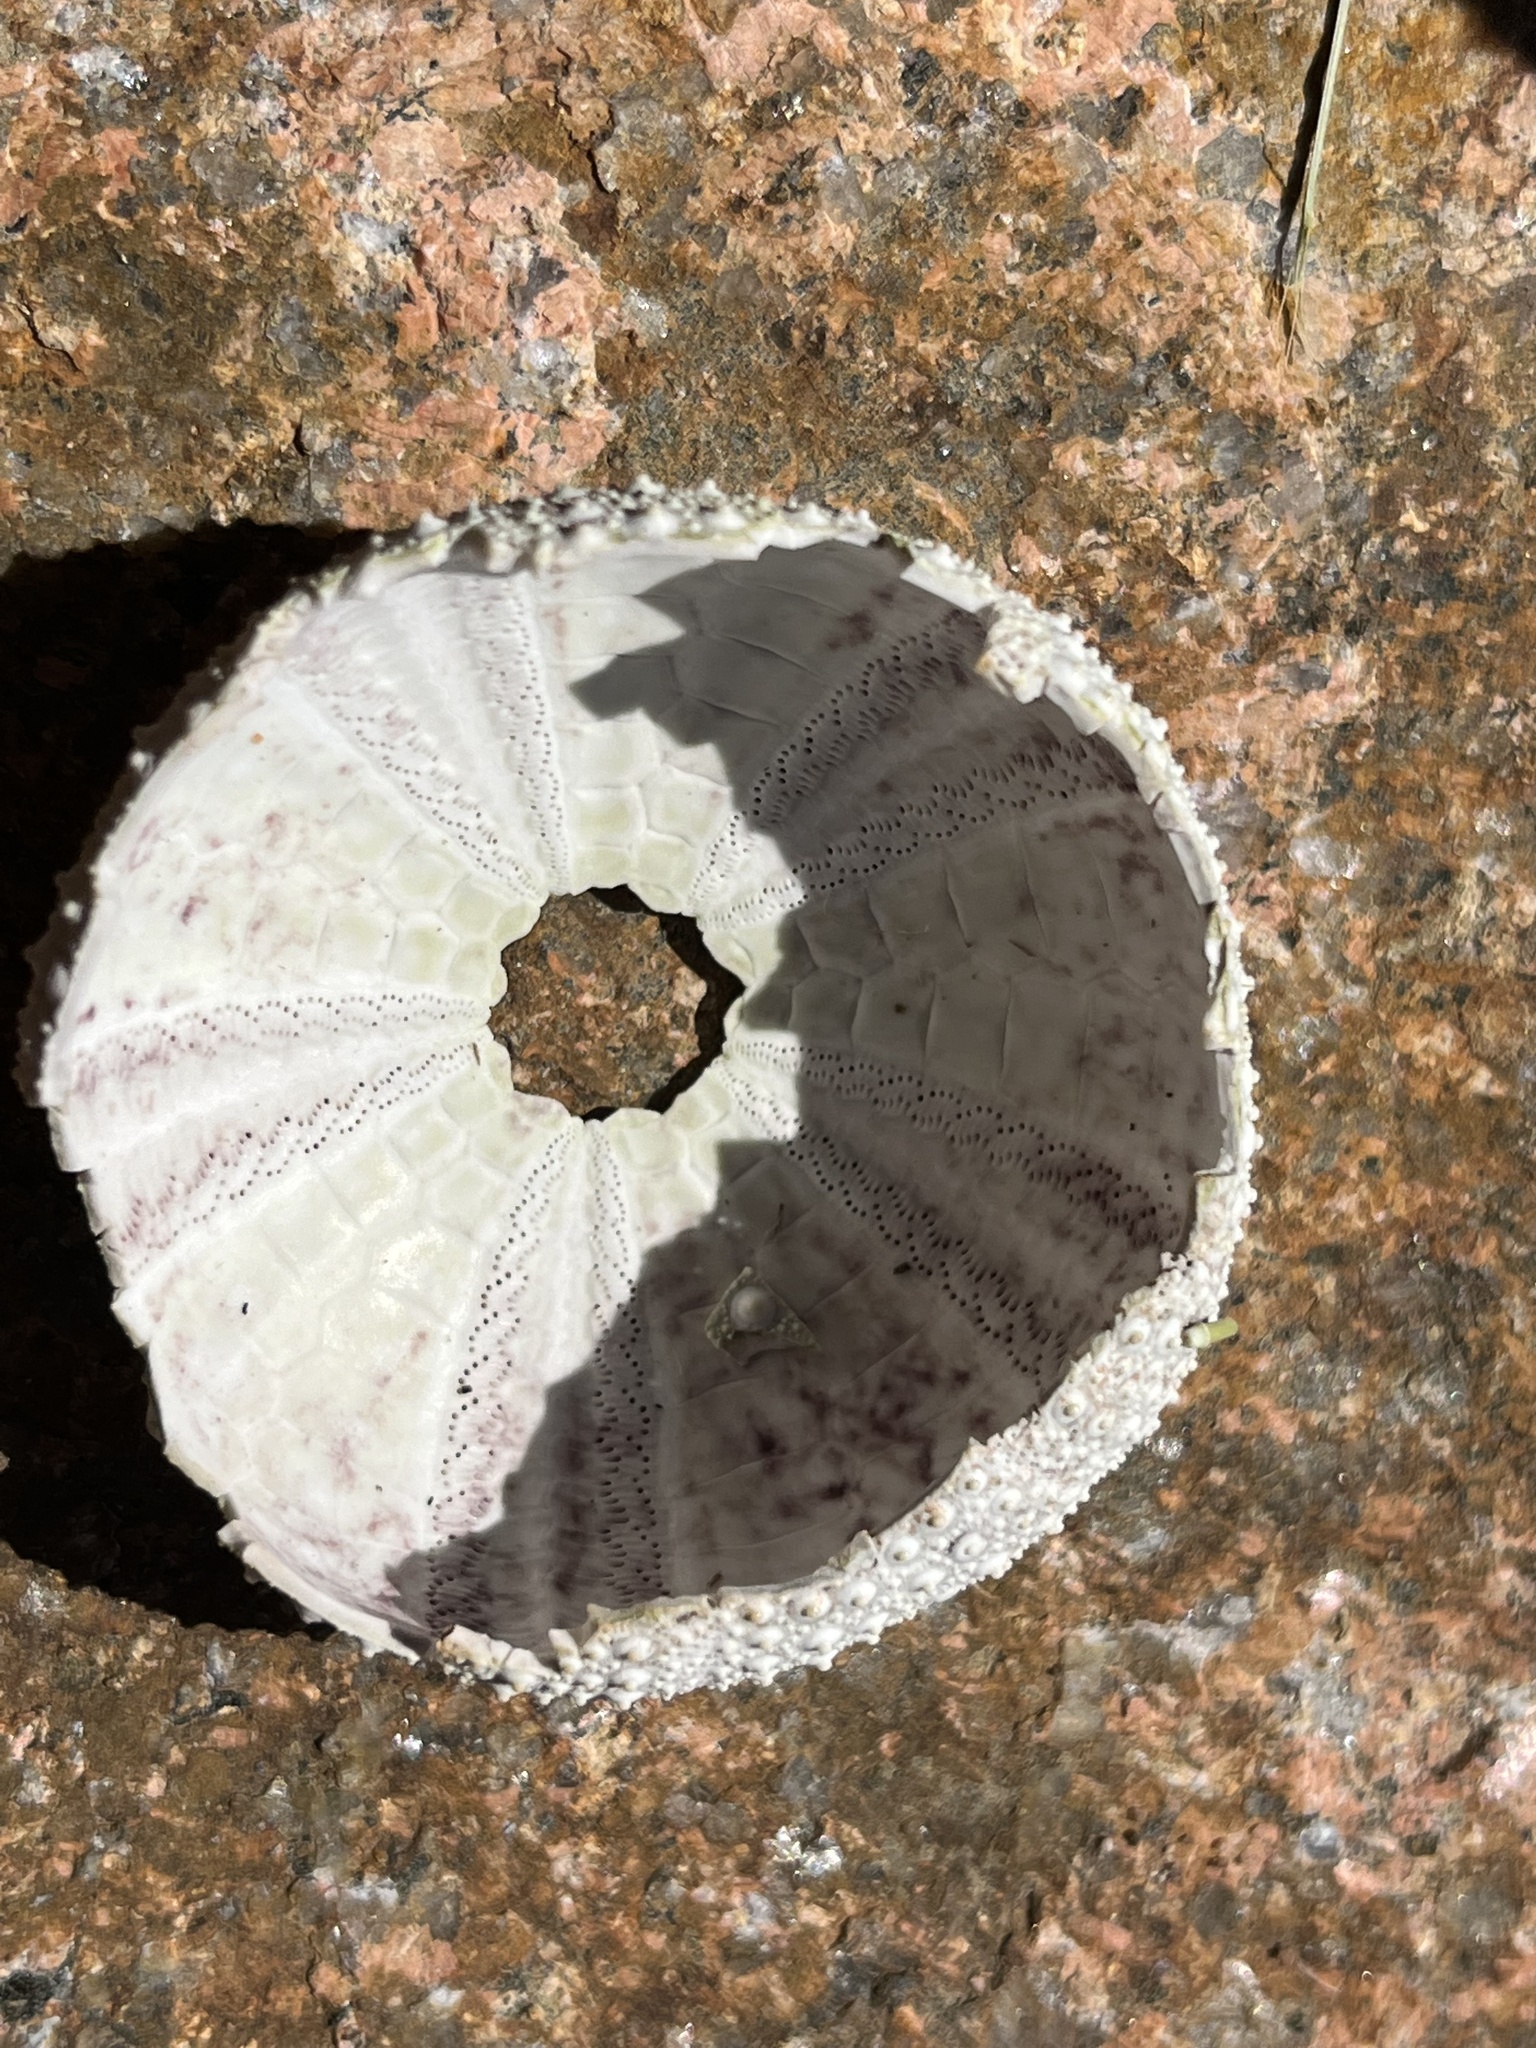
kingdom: Animalia
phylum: Echinodermata
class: Echinoidea
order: Camarodonta
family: Strongylocentrotidae
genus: Strongylocentrotus
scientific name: Strongylocentrotus droebachiensis
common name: Northern sea urchin
